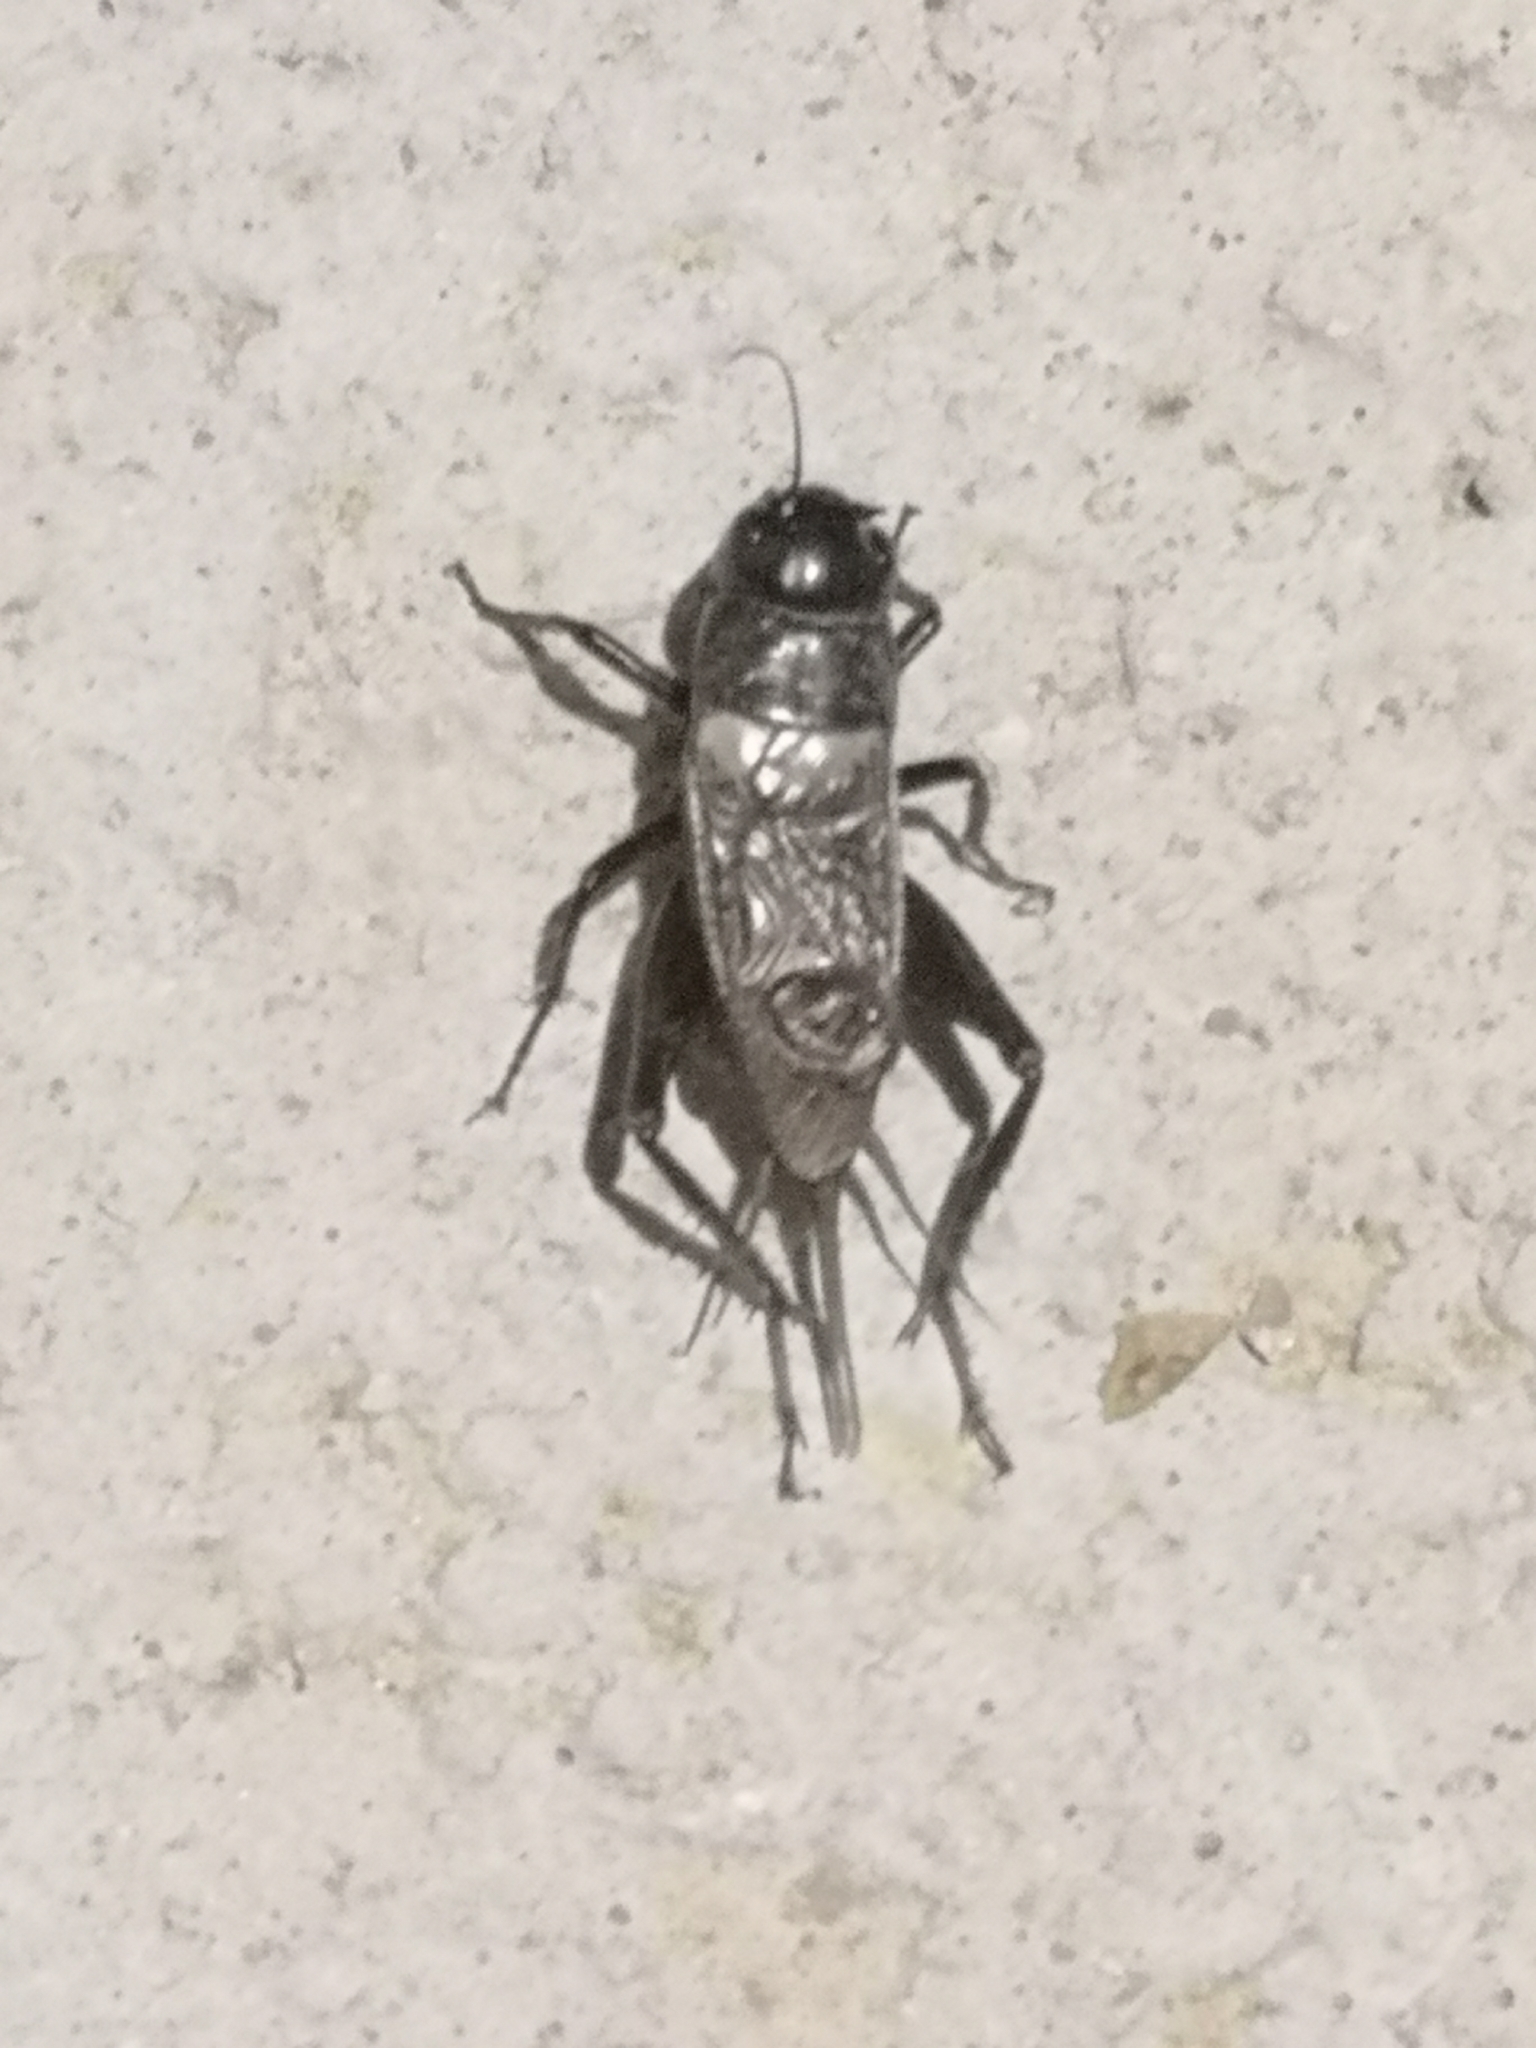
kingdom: Animalia
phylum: Arthropoda
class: Insecta
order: Orthoptera
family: Gryllidae
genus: Gryllus
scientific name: Gryllus bimaculatus
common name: Two-spotted cricket
